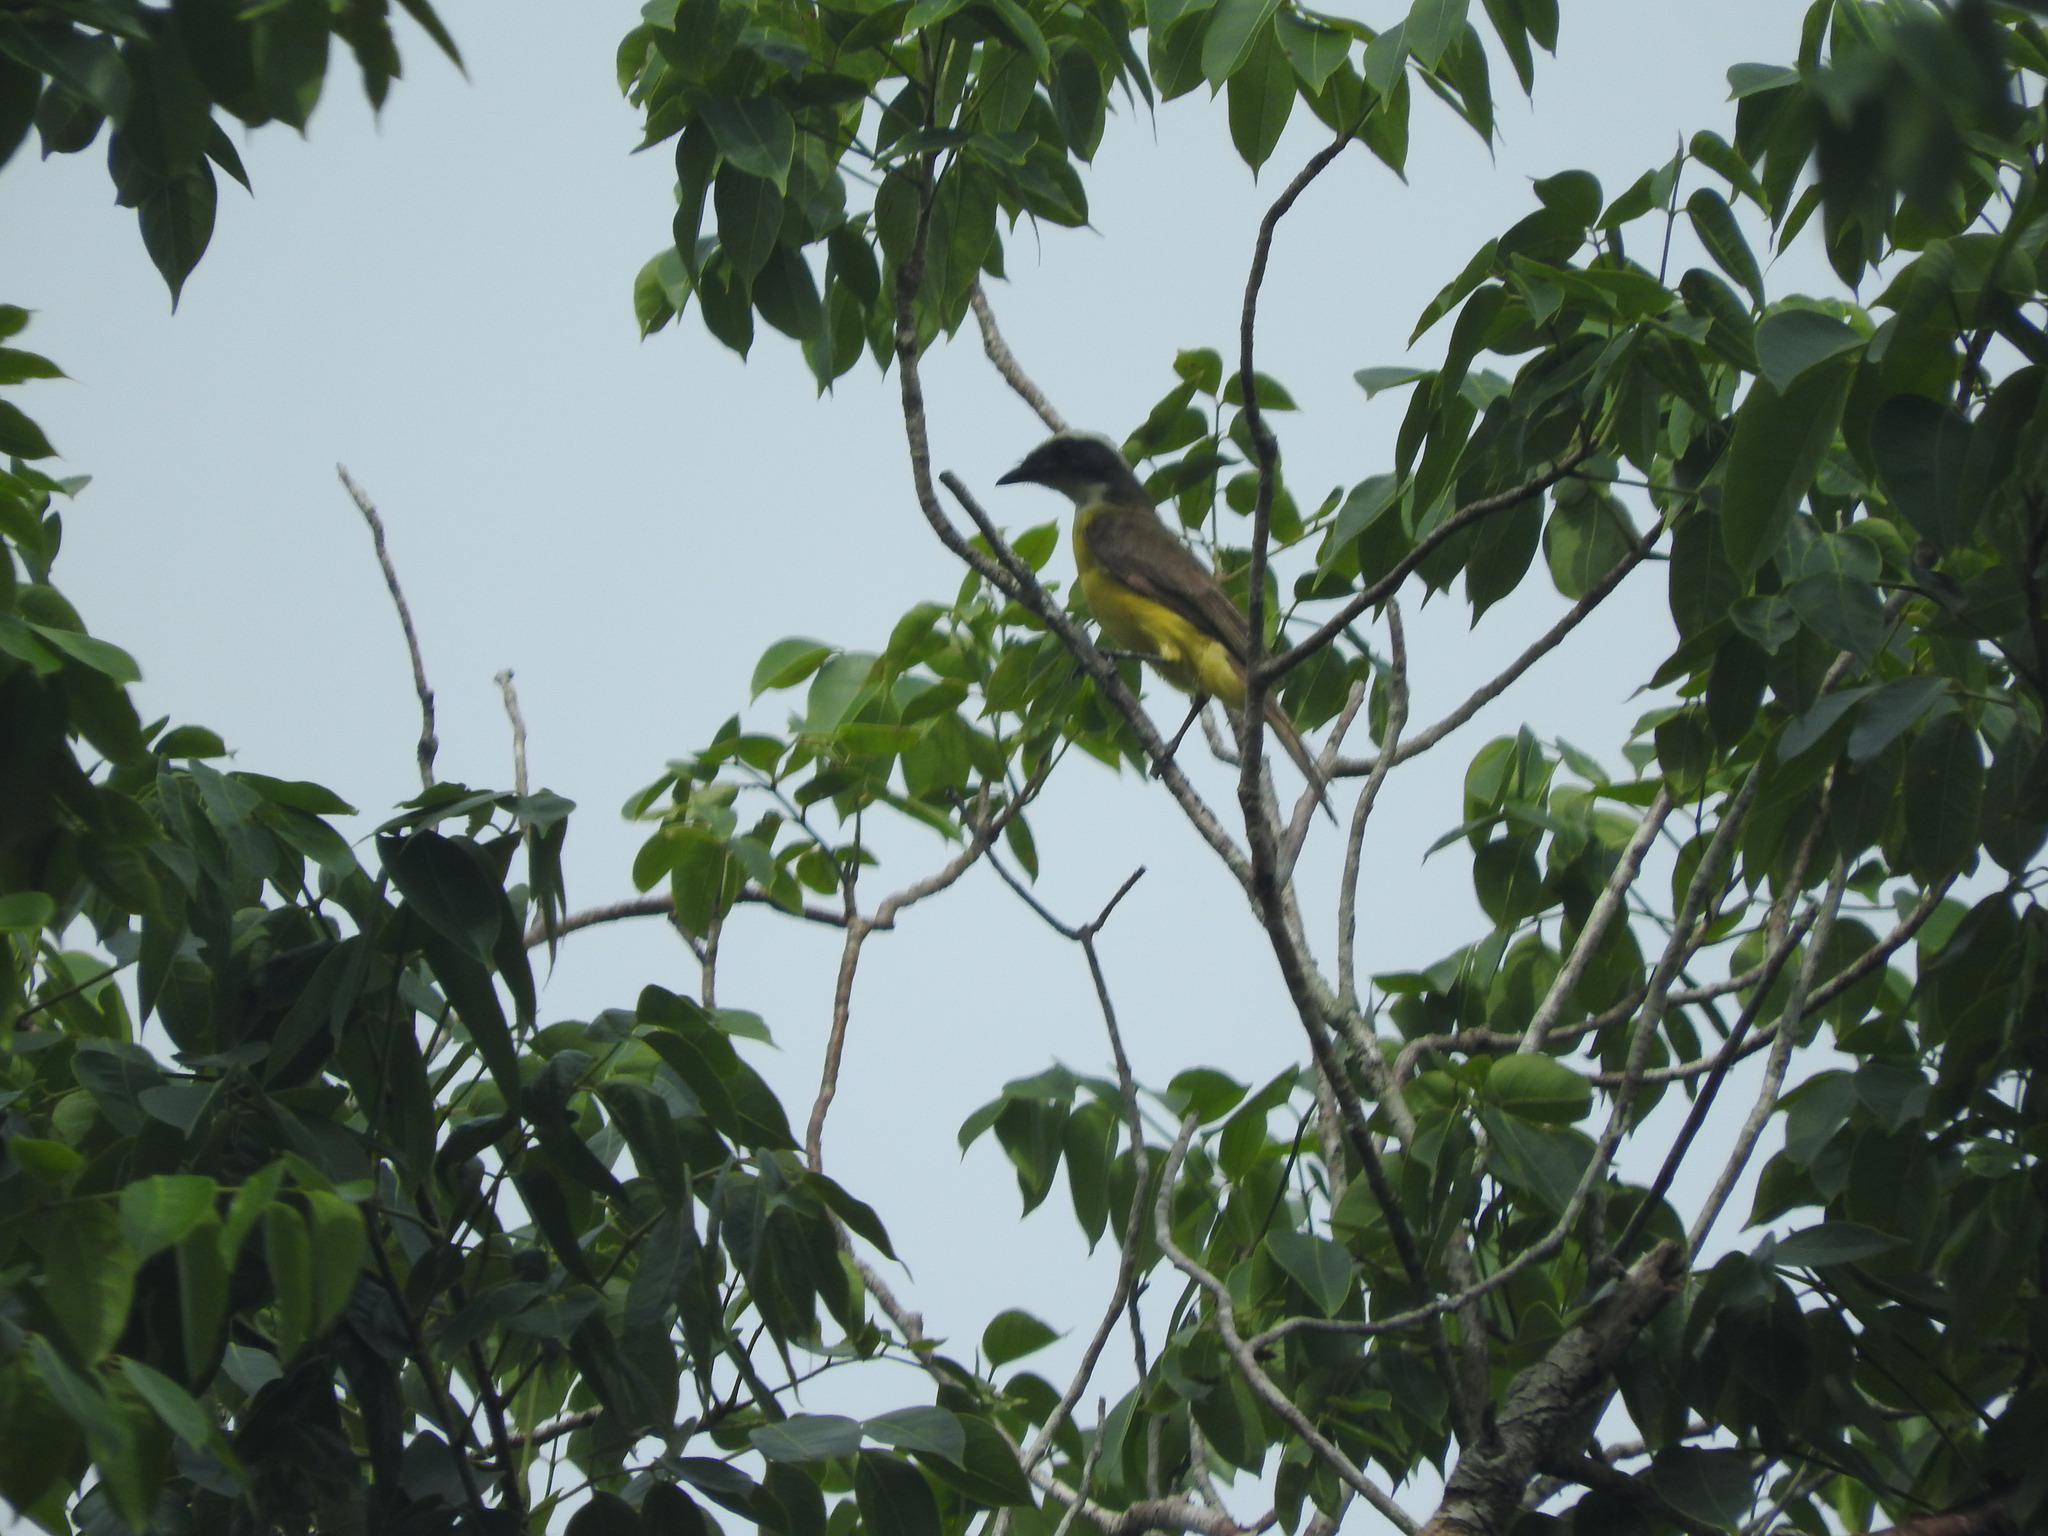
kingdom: Animalia
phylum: Chordata
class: Aves
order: Passeriformes
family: Tyrannidae
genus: Myiozetetes
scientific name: Myiozetetes similis
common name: Social flycatcher
